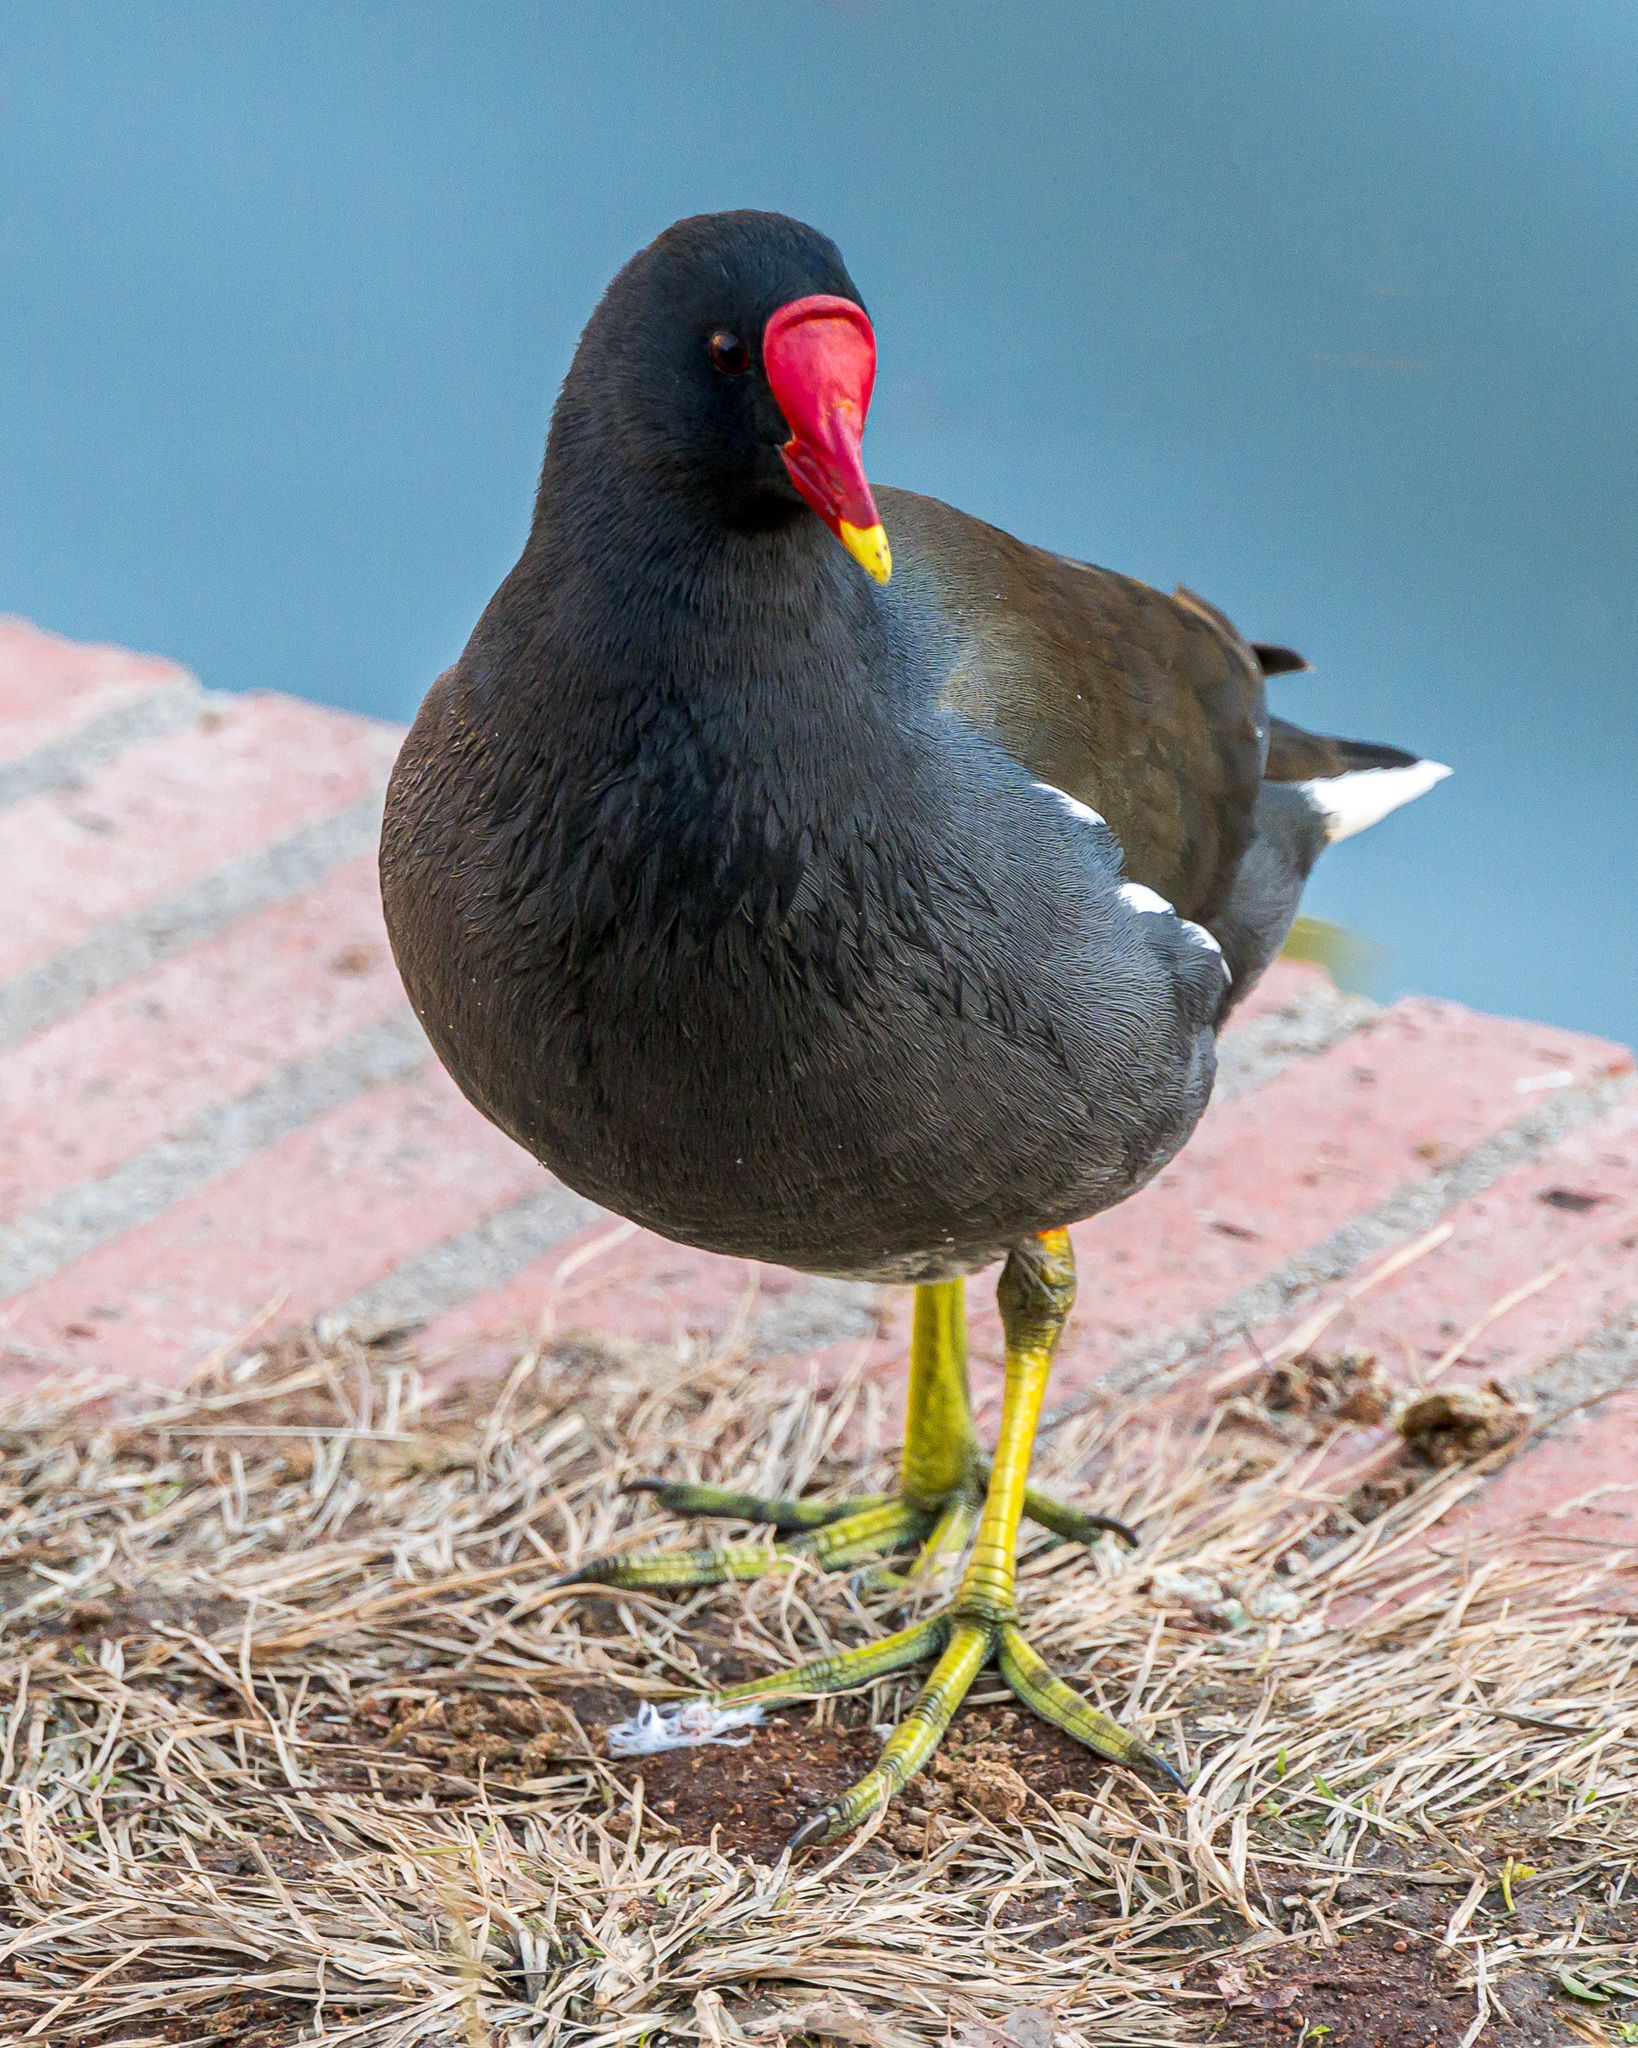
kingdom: Animalia
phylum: Chordata
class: Aves
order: Gruiformes
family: Rallidae
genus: Gallinula
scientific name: Gallinula chloropus
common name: Common moorhen
